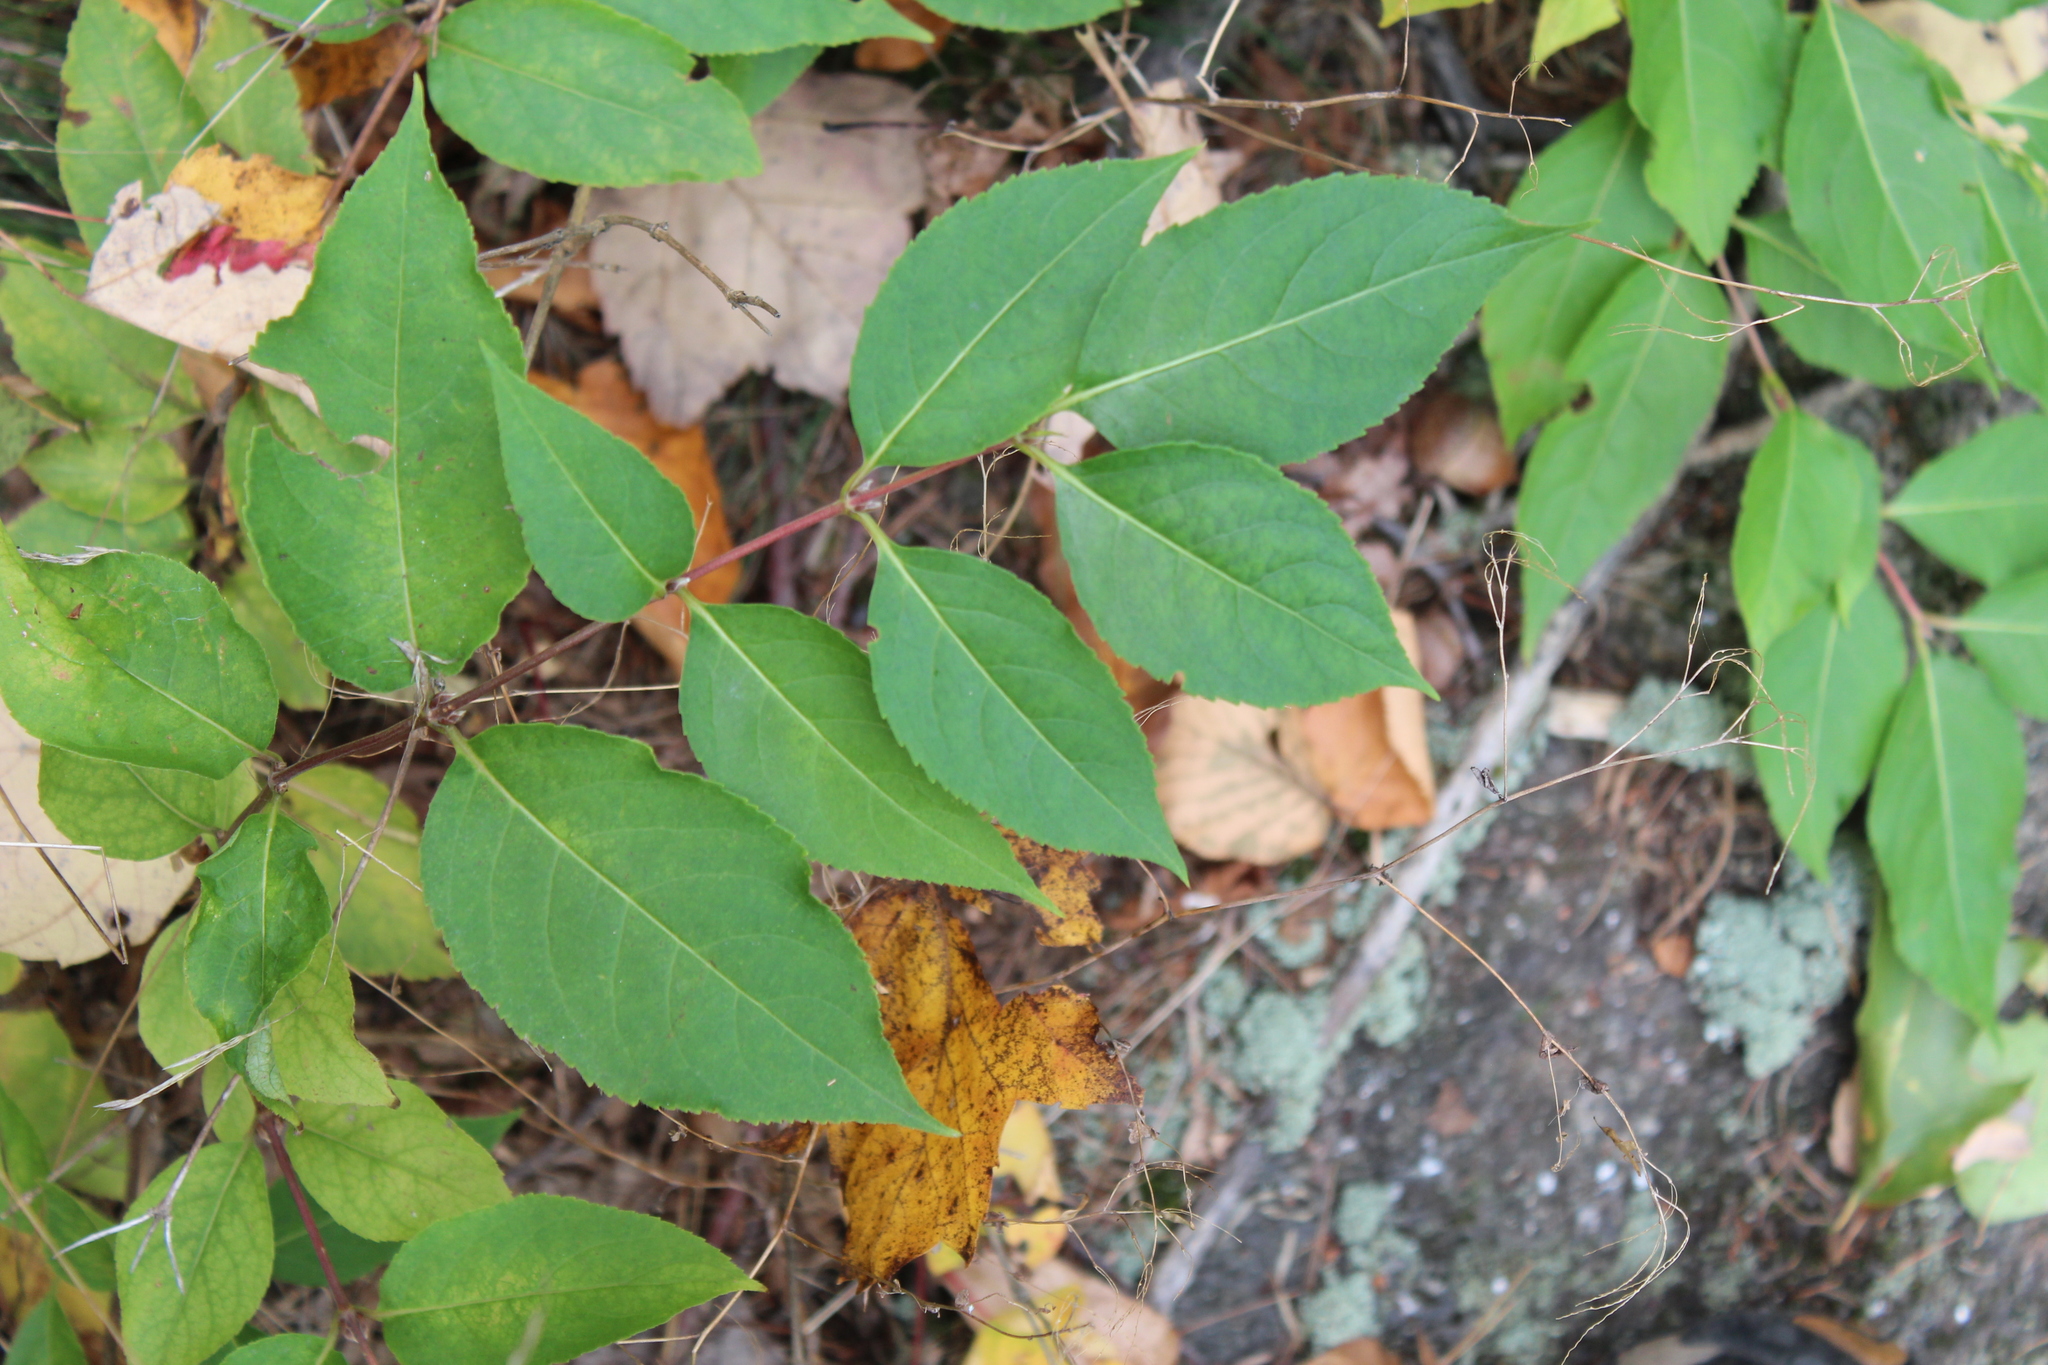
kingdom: Plantae
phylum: Tracheophyta
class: Magnoliopsida
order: Dipsacales
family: Caprifoliaceae
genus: Diervilla
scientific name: Diervilla lonicera
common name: Bush-honeysuckle
